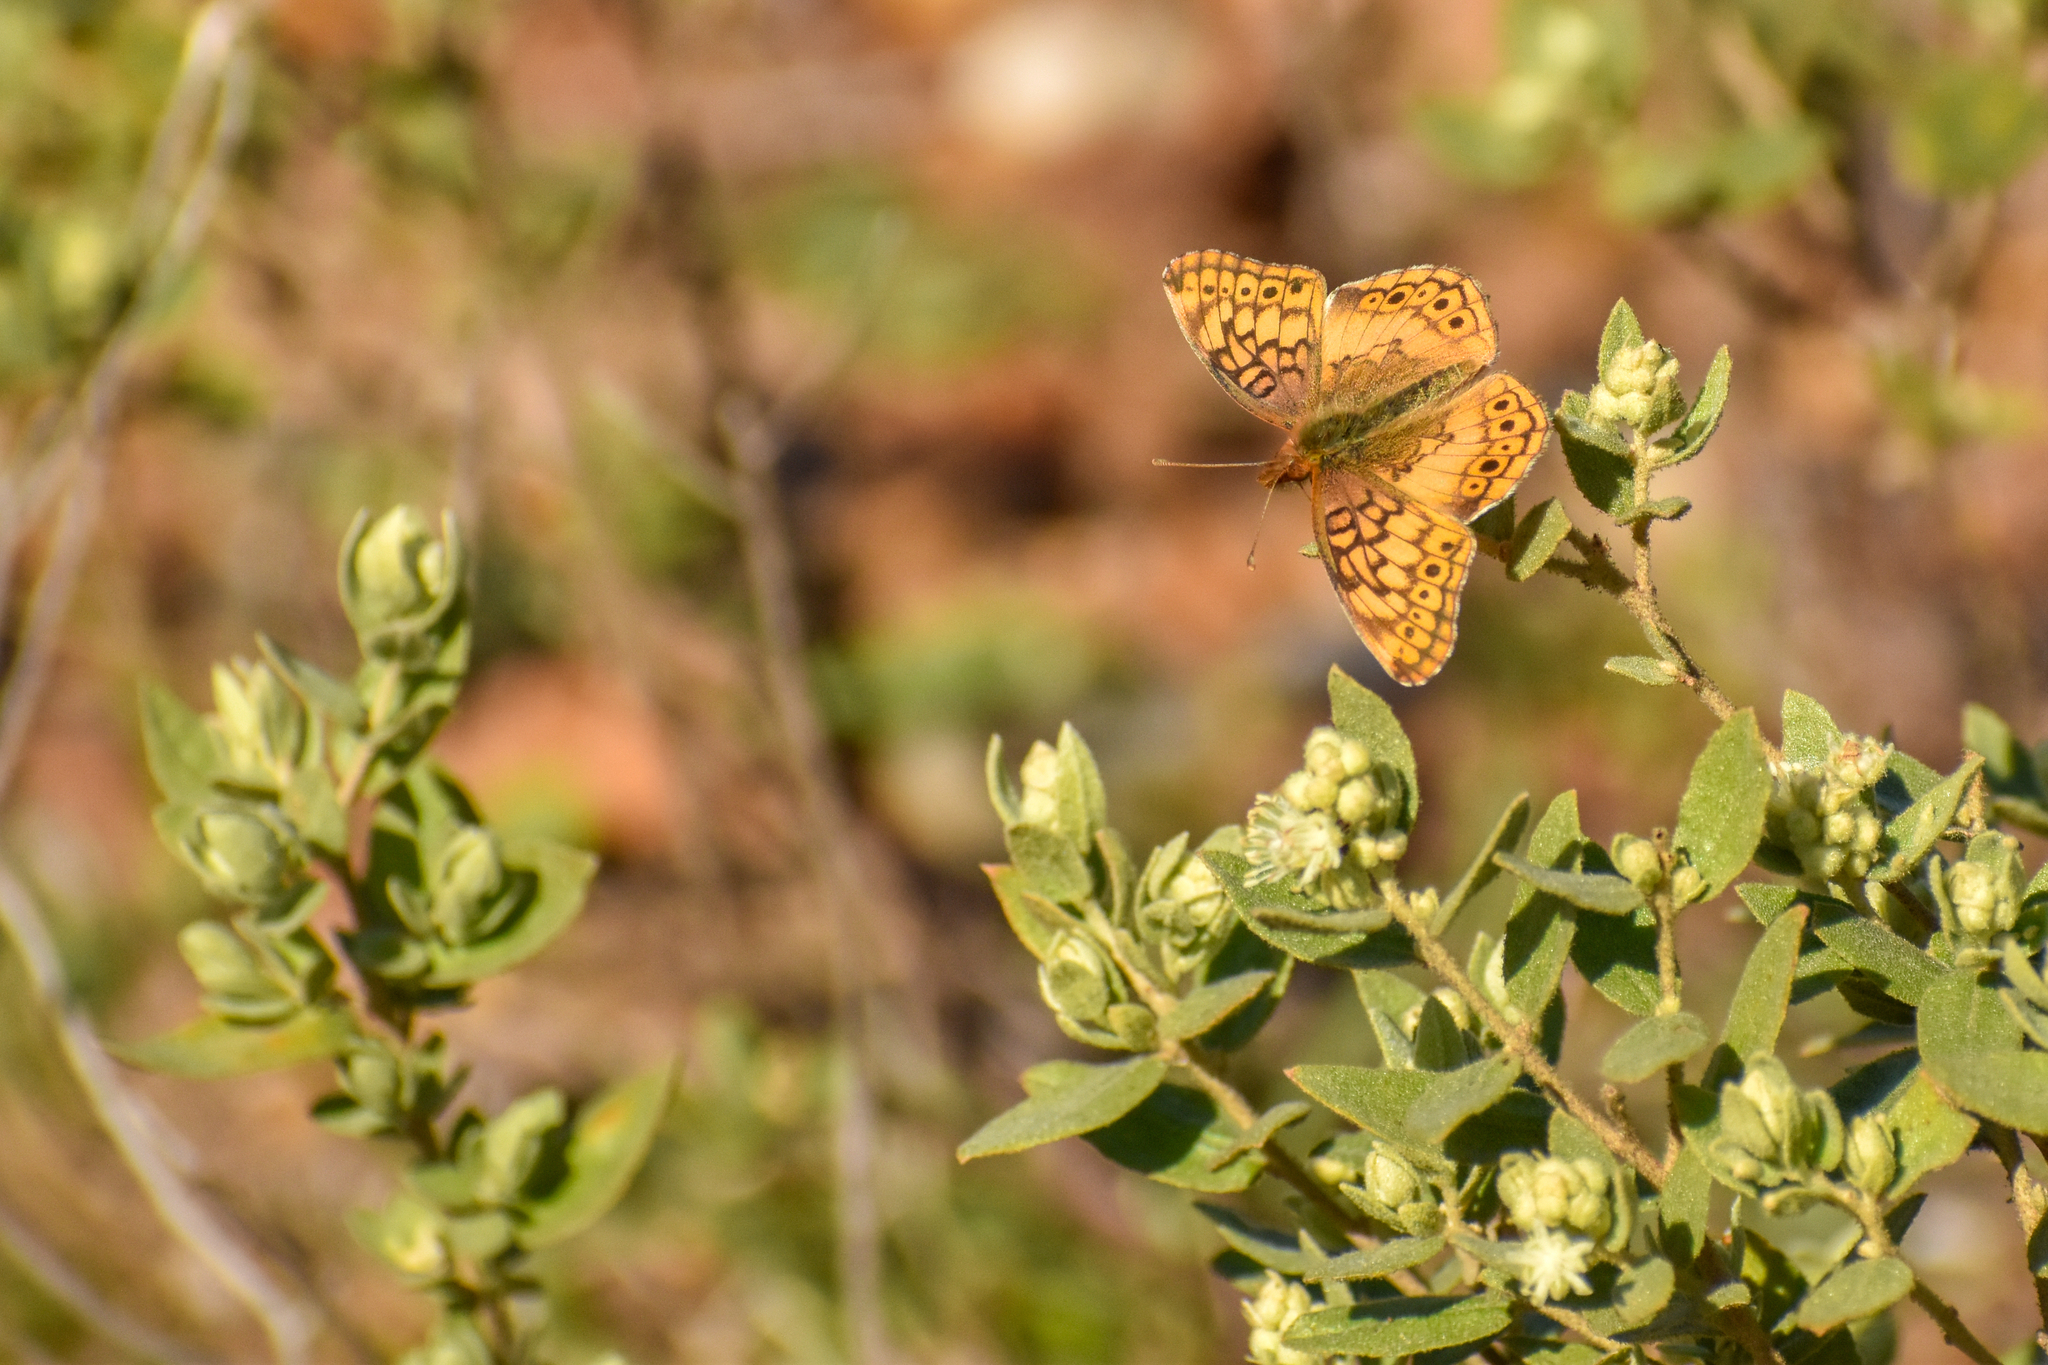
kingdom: Animalia
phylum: Arthropoda
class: Insecta
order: Lepidoptera
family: Nymphalidae
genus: Euptoieta
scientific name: Euptoieta hortensia
